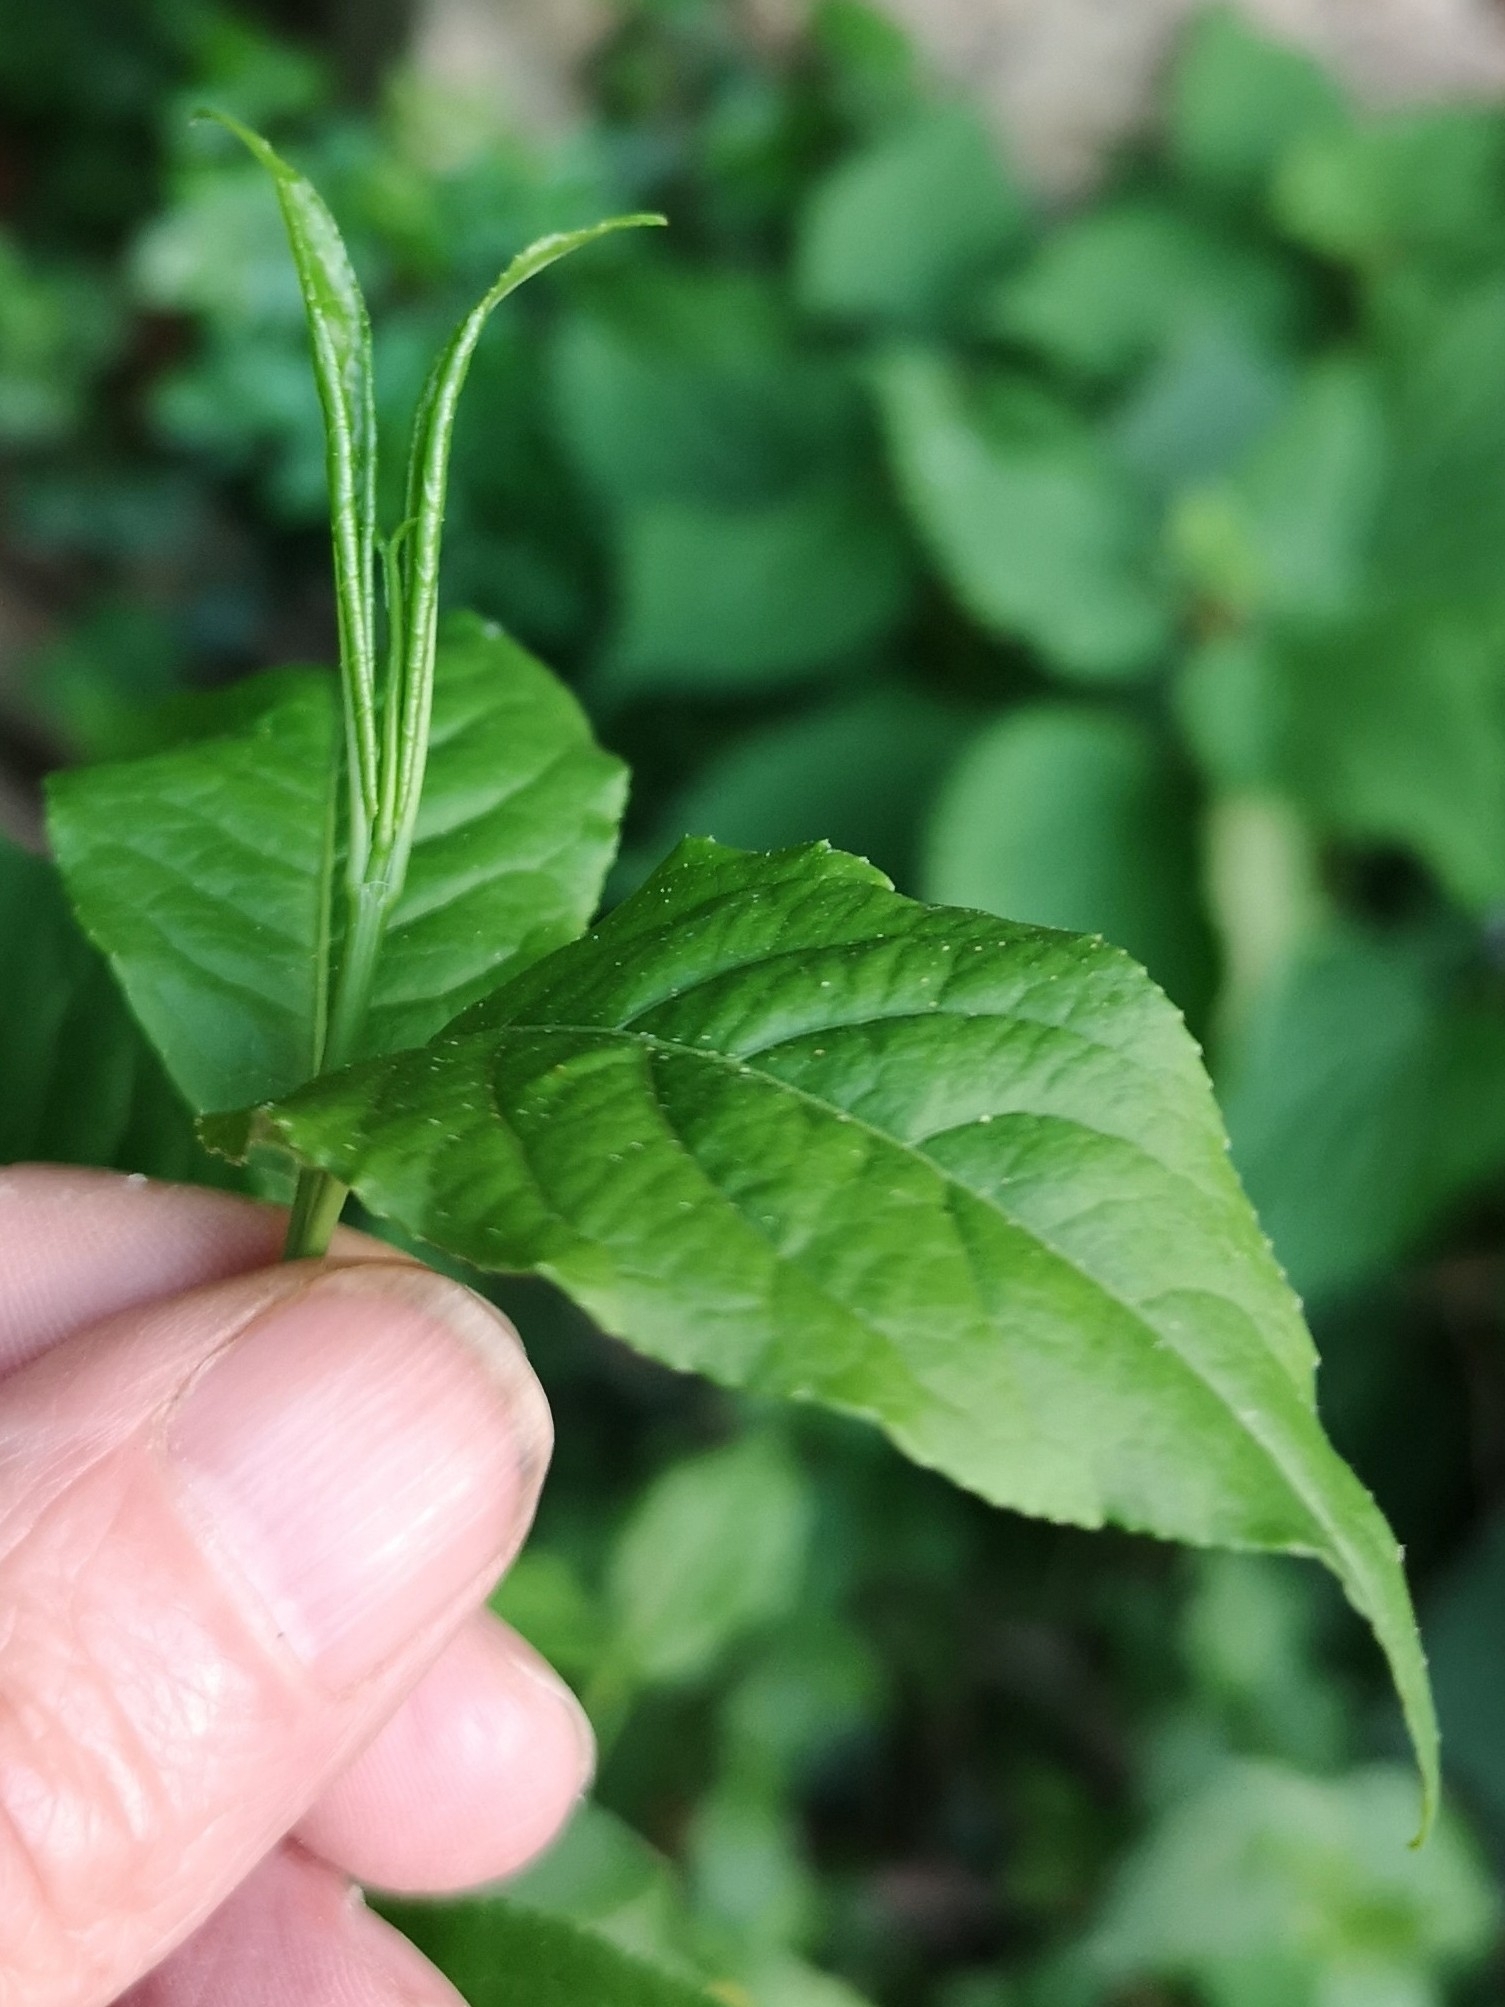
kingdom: Plantae
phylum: Tracheophyta
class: Magnoliopsida
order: Celastrales
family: Celastraceae
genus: Euonymus
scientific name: Euonymus europaeus
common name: Spindle
